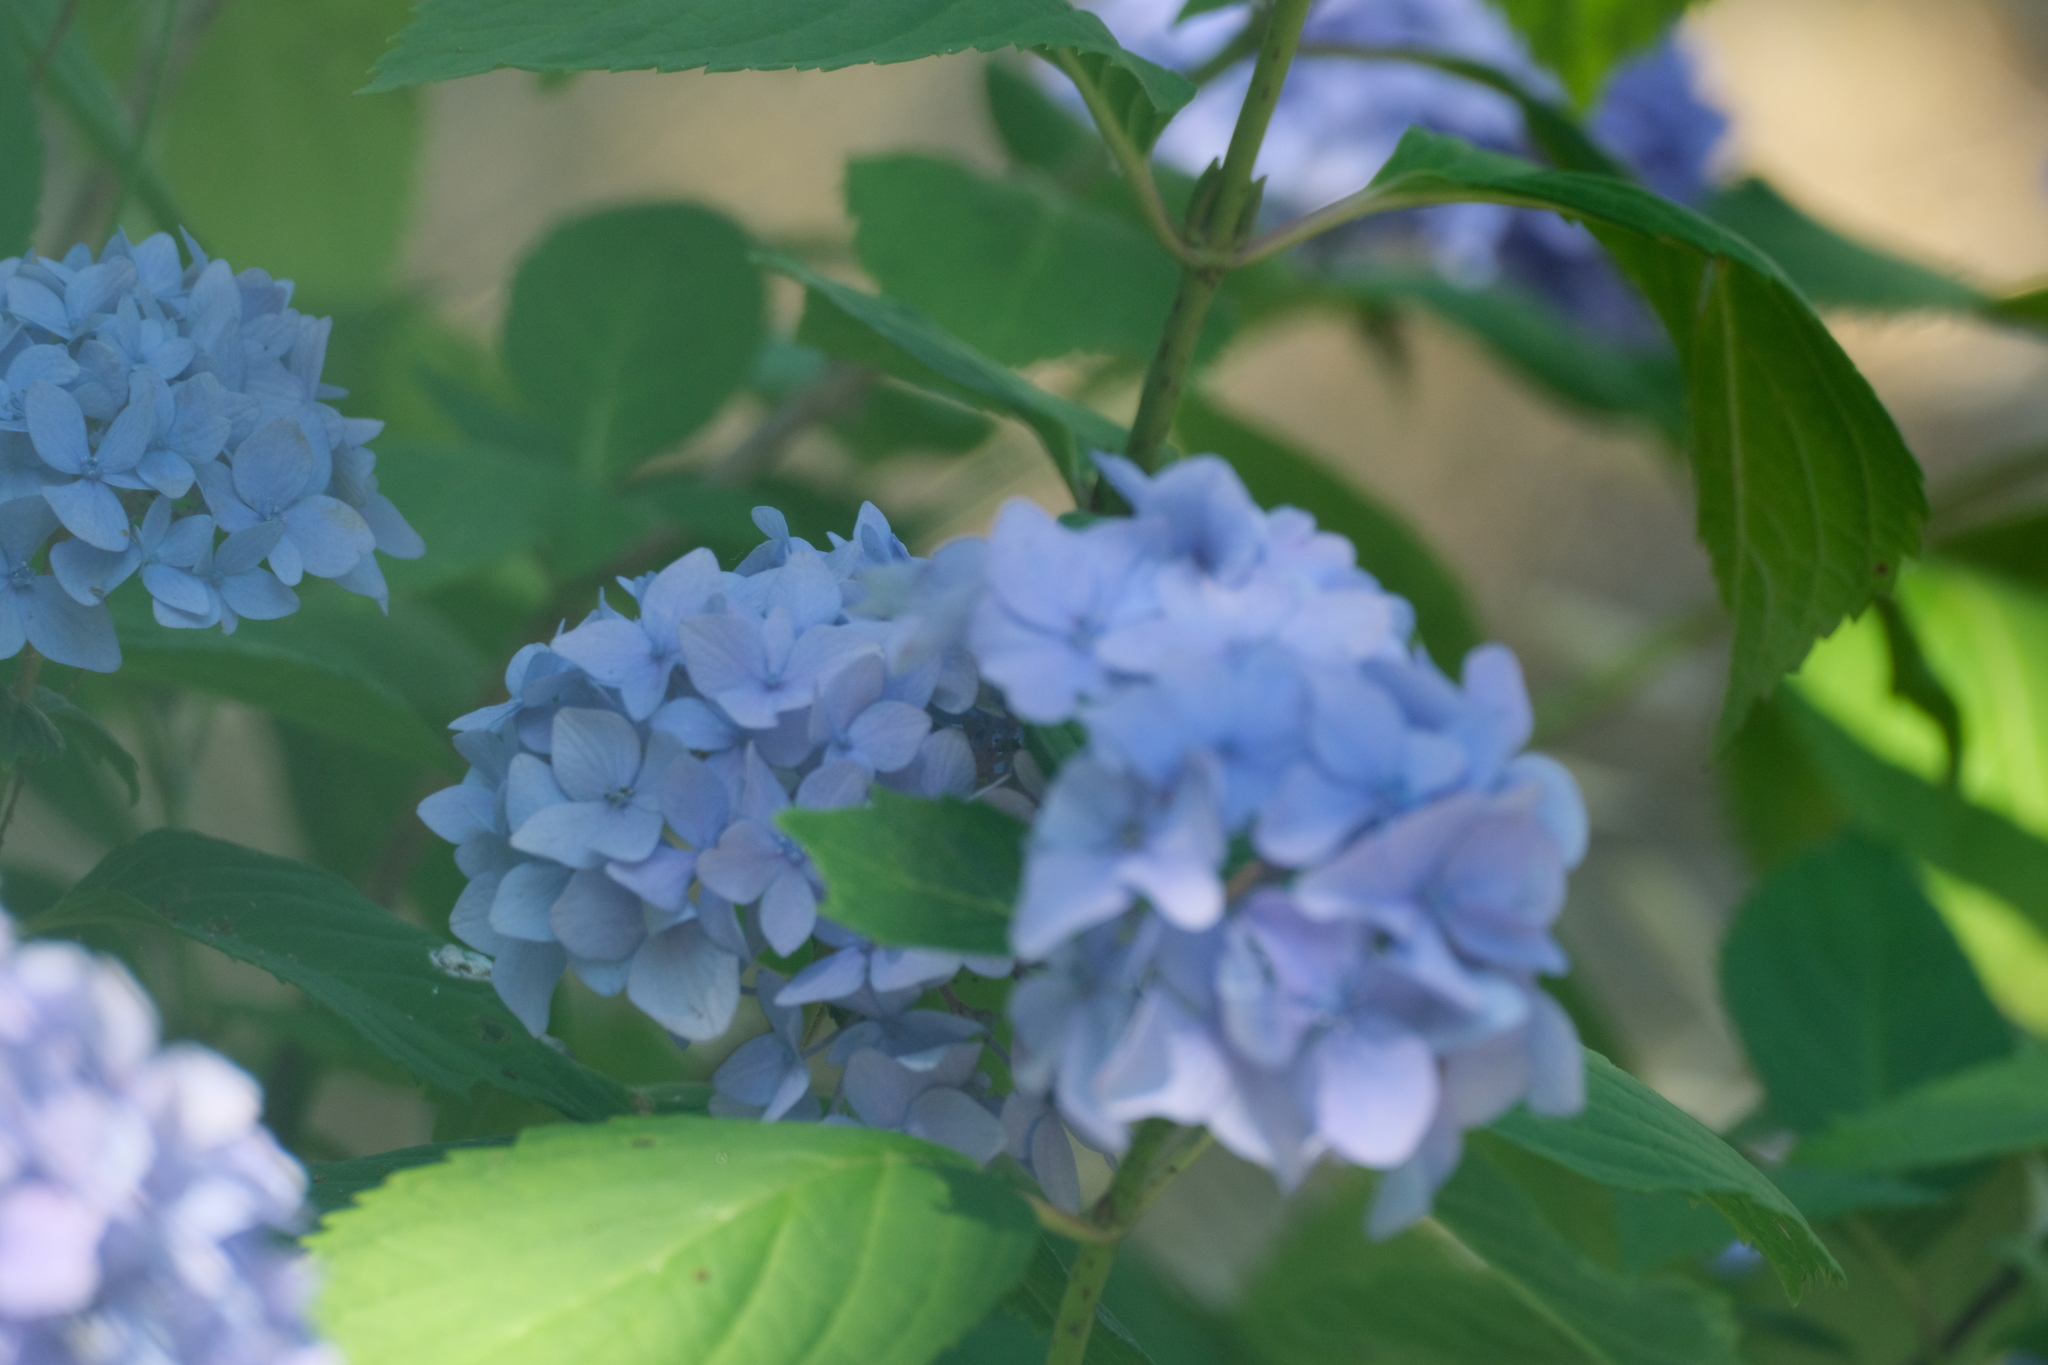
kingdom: Plantae
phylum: Tracheophyta
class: Magnoliopsida
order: Cornales
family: Hydrangeaceae
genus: Hydrangea
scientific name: Hydrangea macrophylla
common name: Hydrangea
